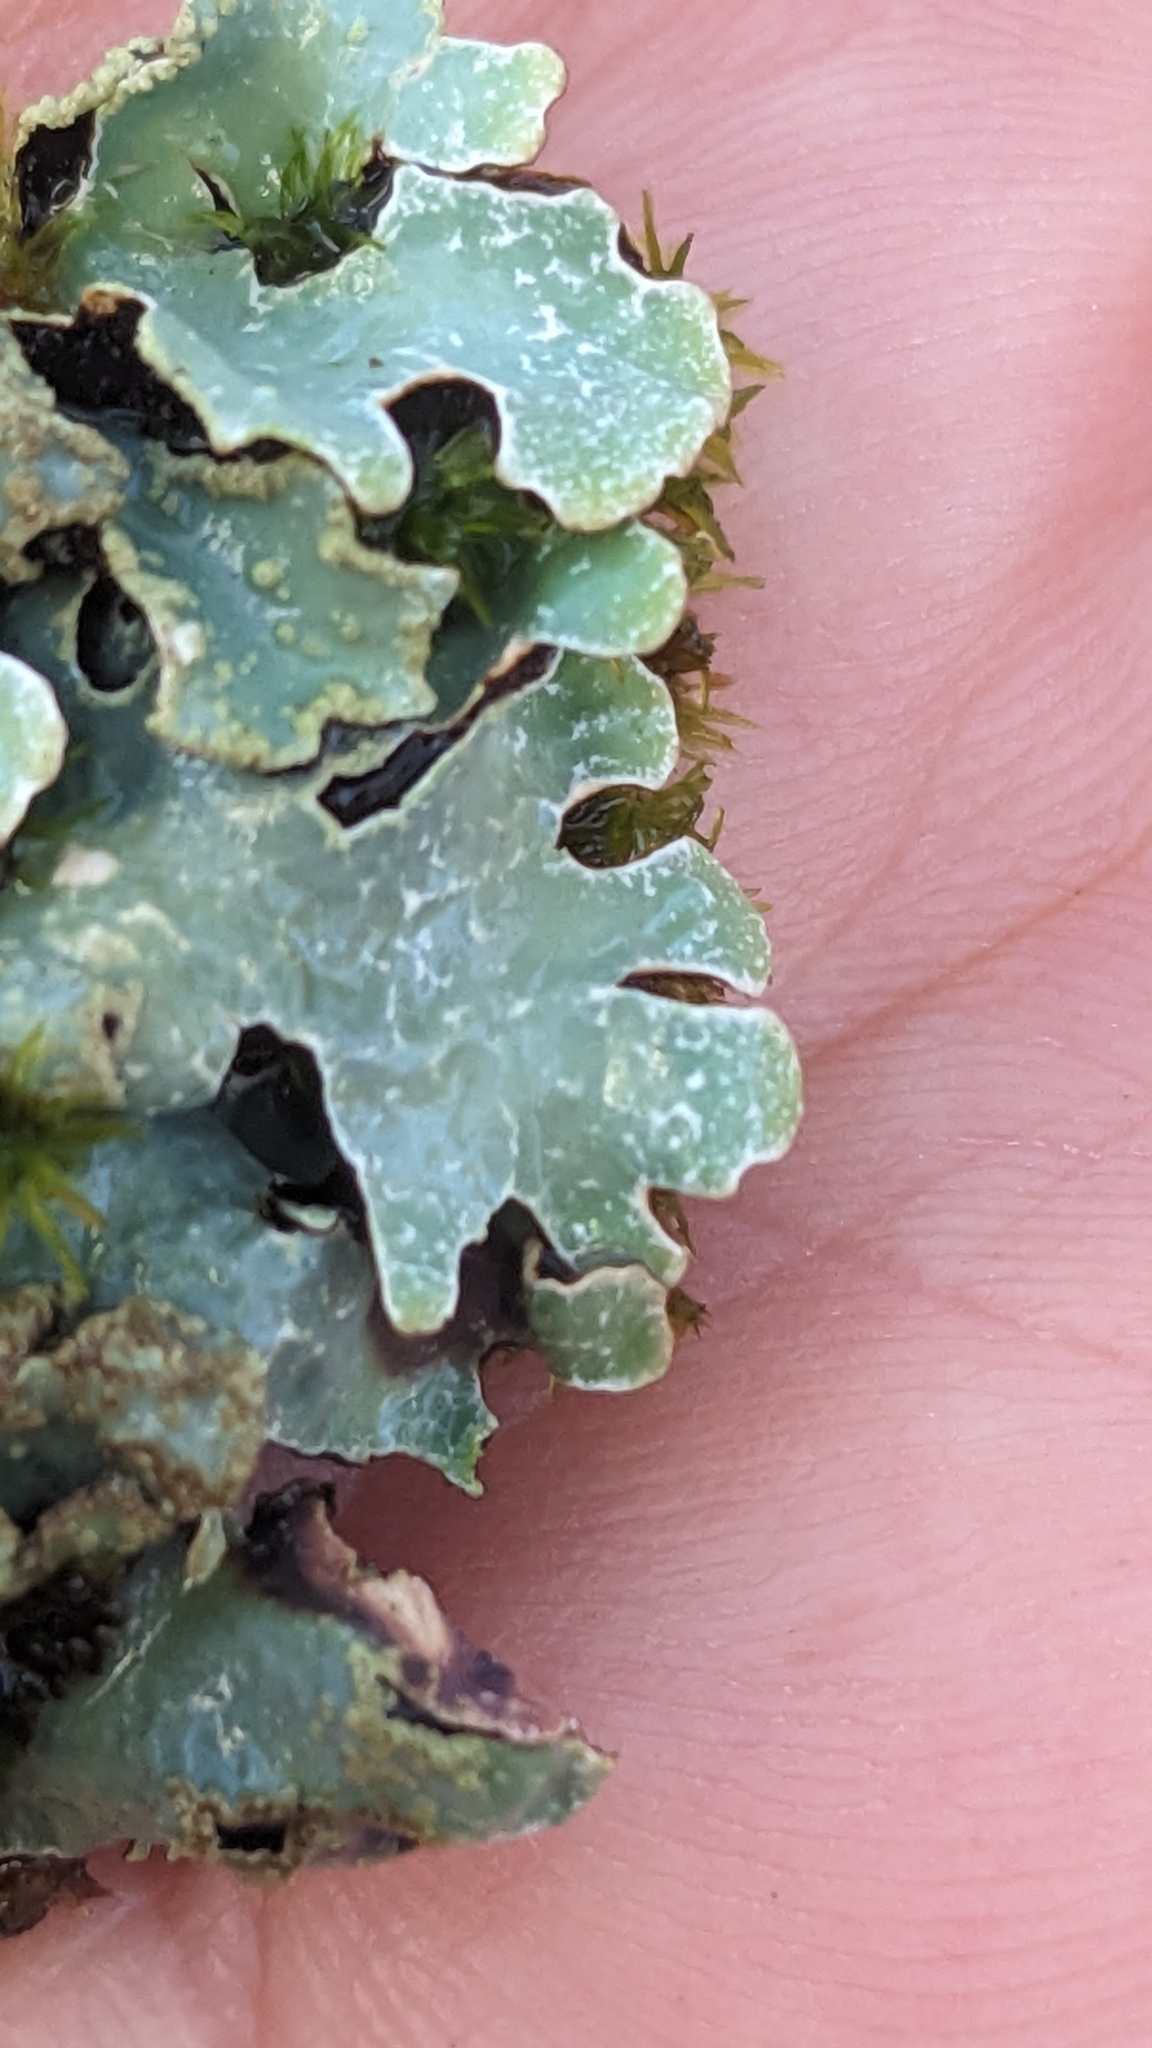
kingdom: Fungi
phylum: Ascomycota
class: Lecanoromycetes
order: Lecanorales
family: Parmeliaceae
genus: Parmelia
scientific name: Parmelia sulcata
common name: Netted shield lichen
